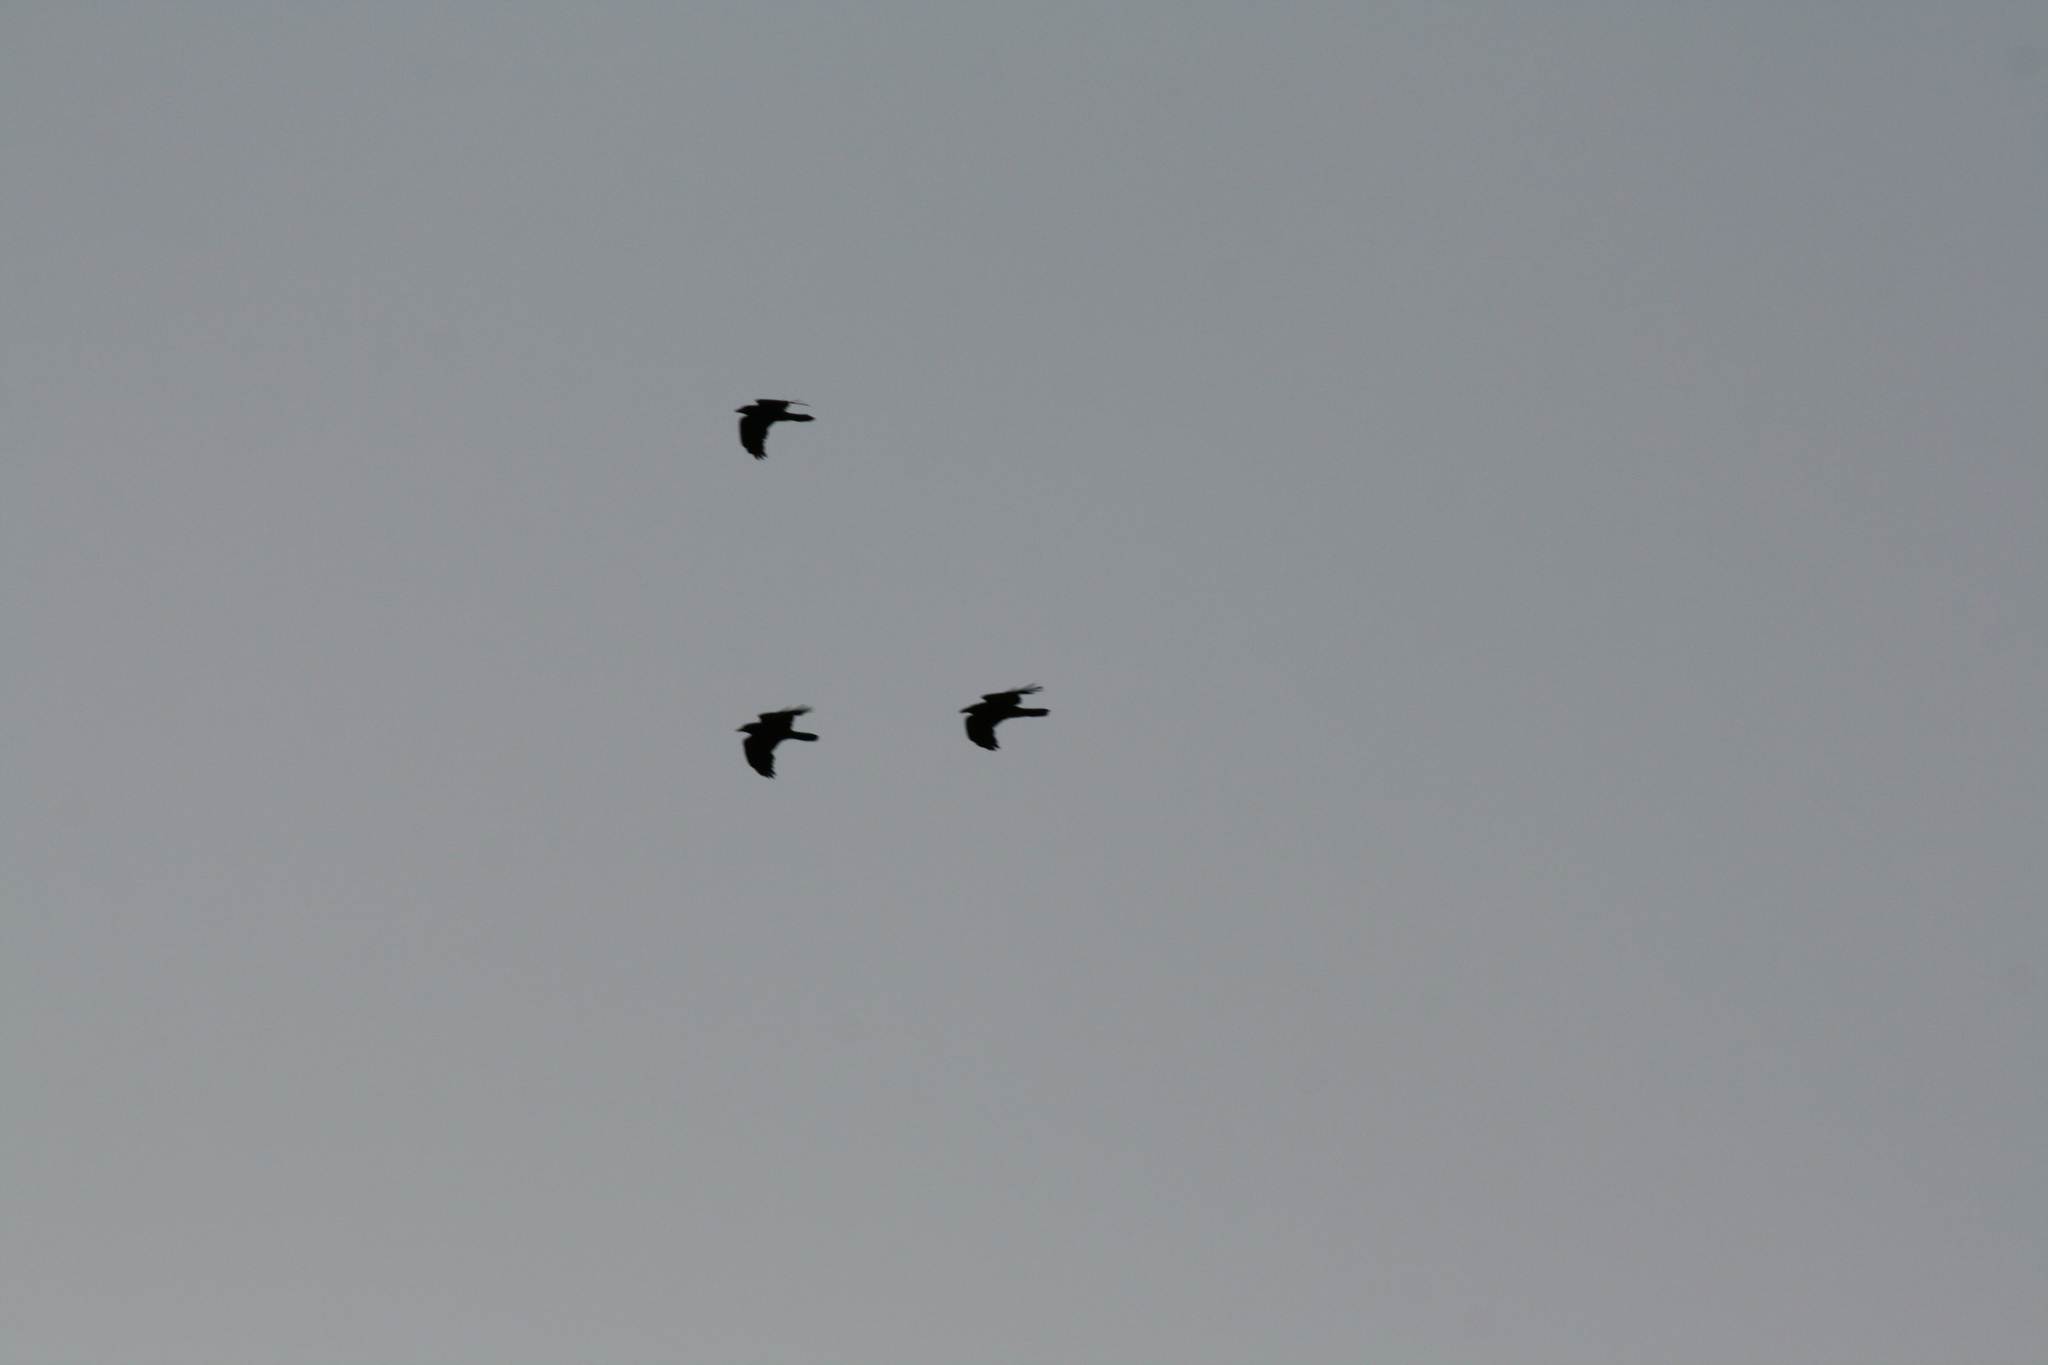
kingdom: Animalia
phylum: Chordata
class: Aves
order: Passeriformes
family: Corvidae
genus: Corvus
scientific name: Corvus brachyrhynchos
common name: American crow
